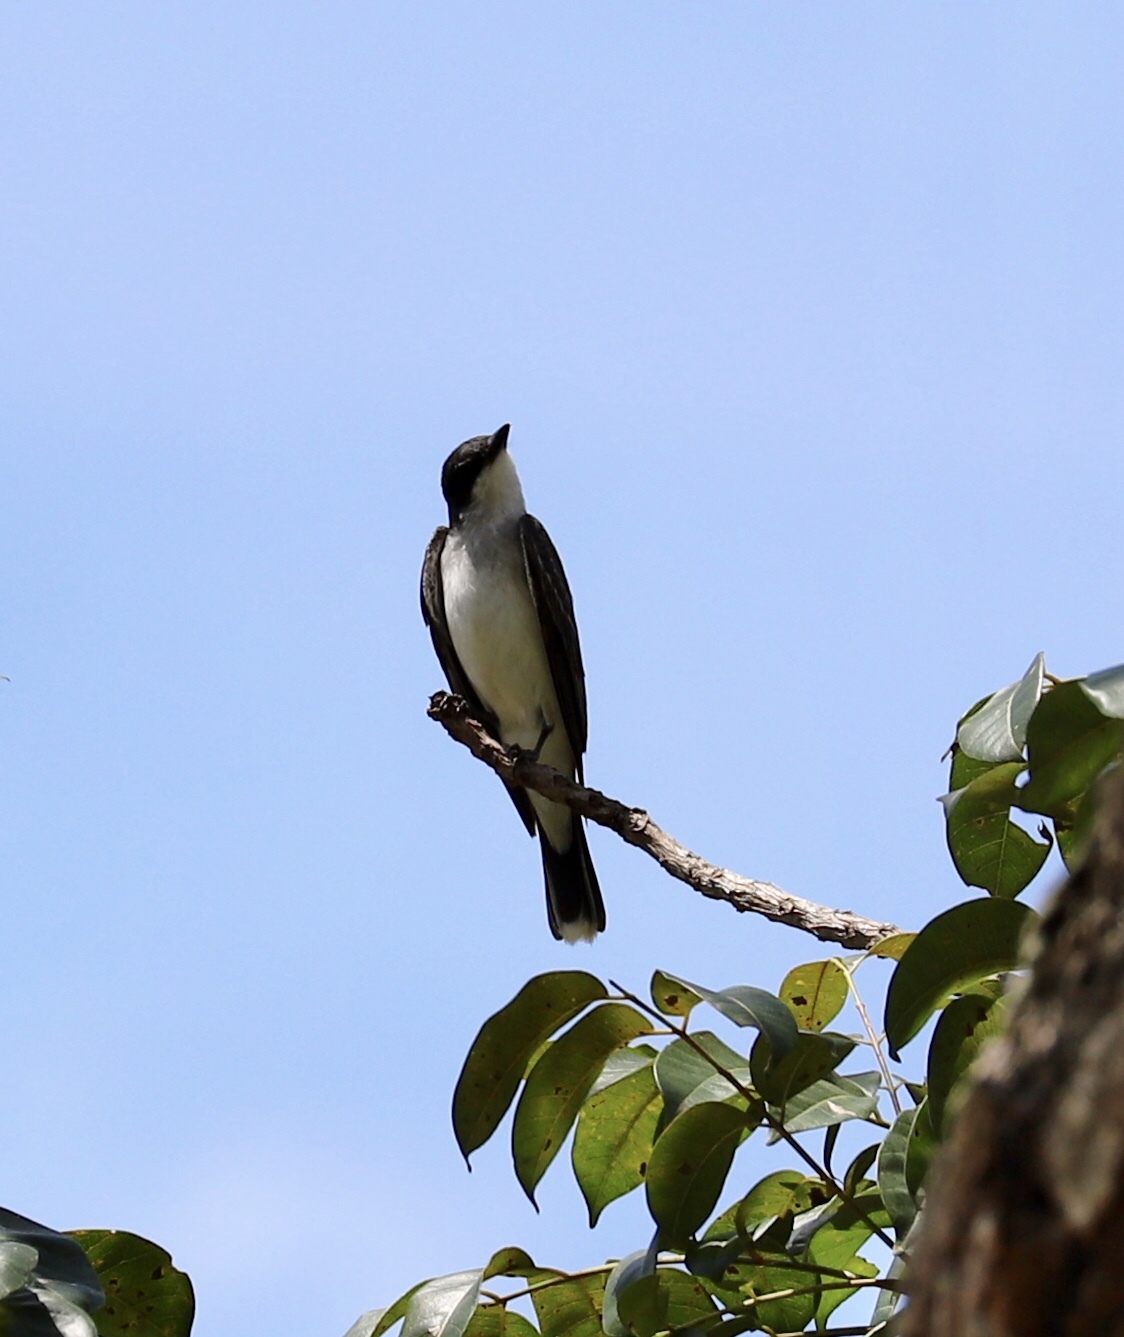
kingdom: Animalia
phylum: Chordata
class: Aves
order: Passeriformes
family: Tyrannidae
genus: Tyrannus
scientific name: Tyrannus tyrannus
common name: Eastern kingbird
